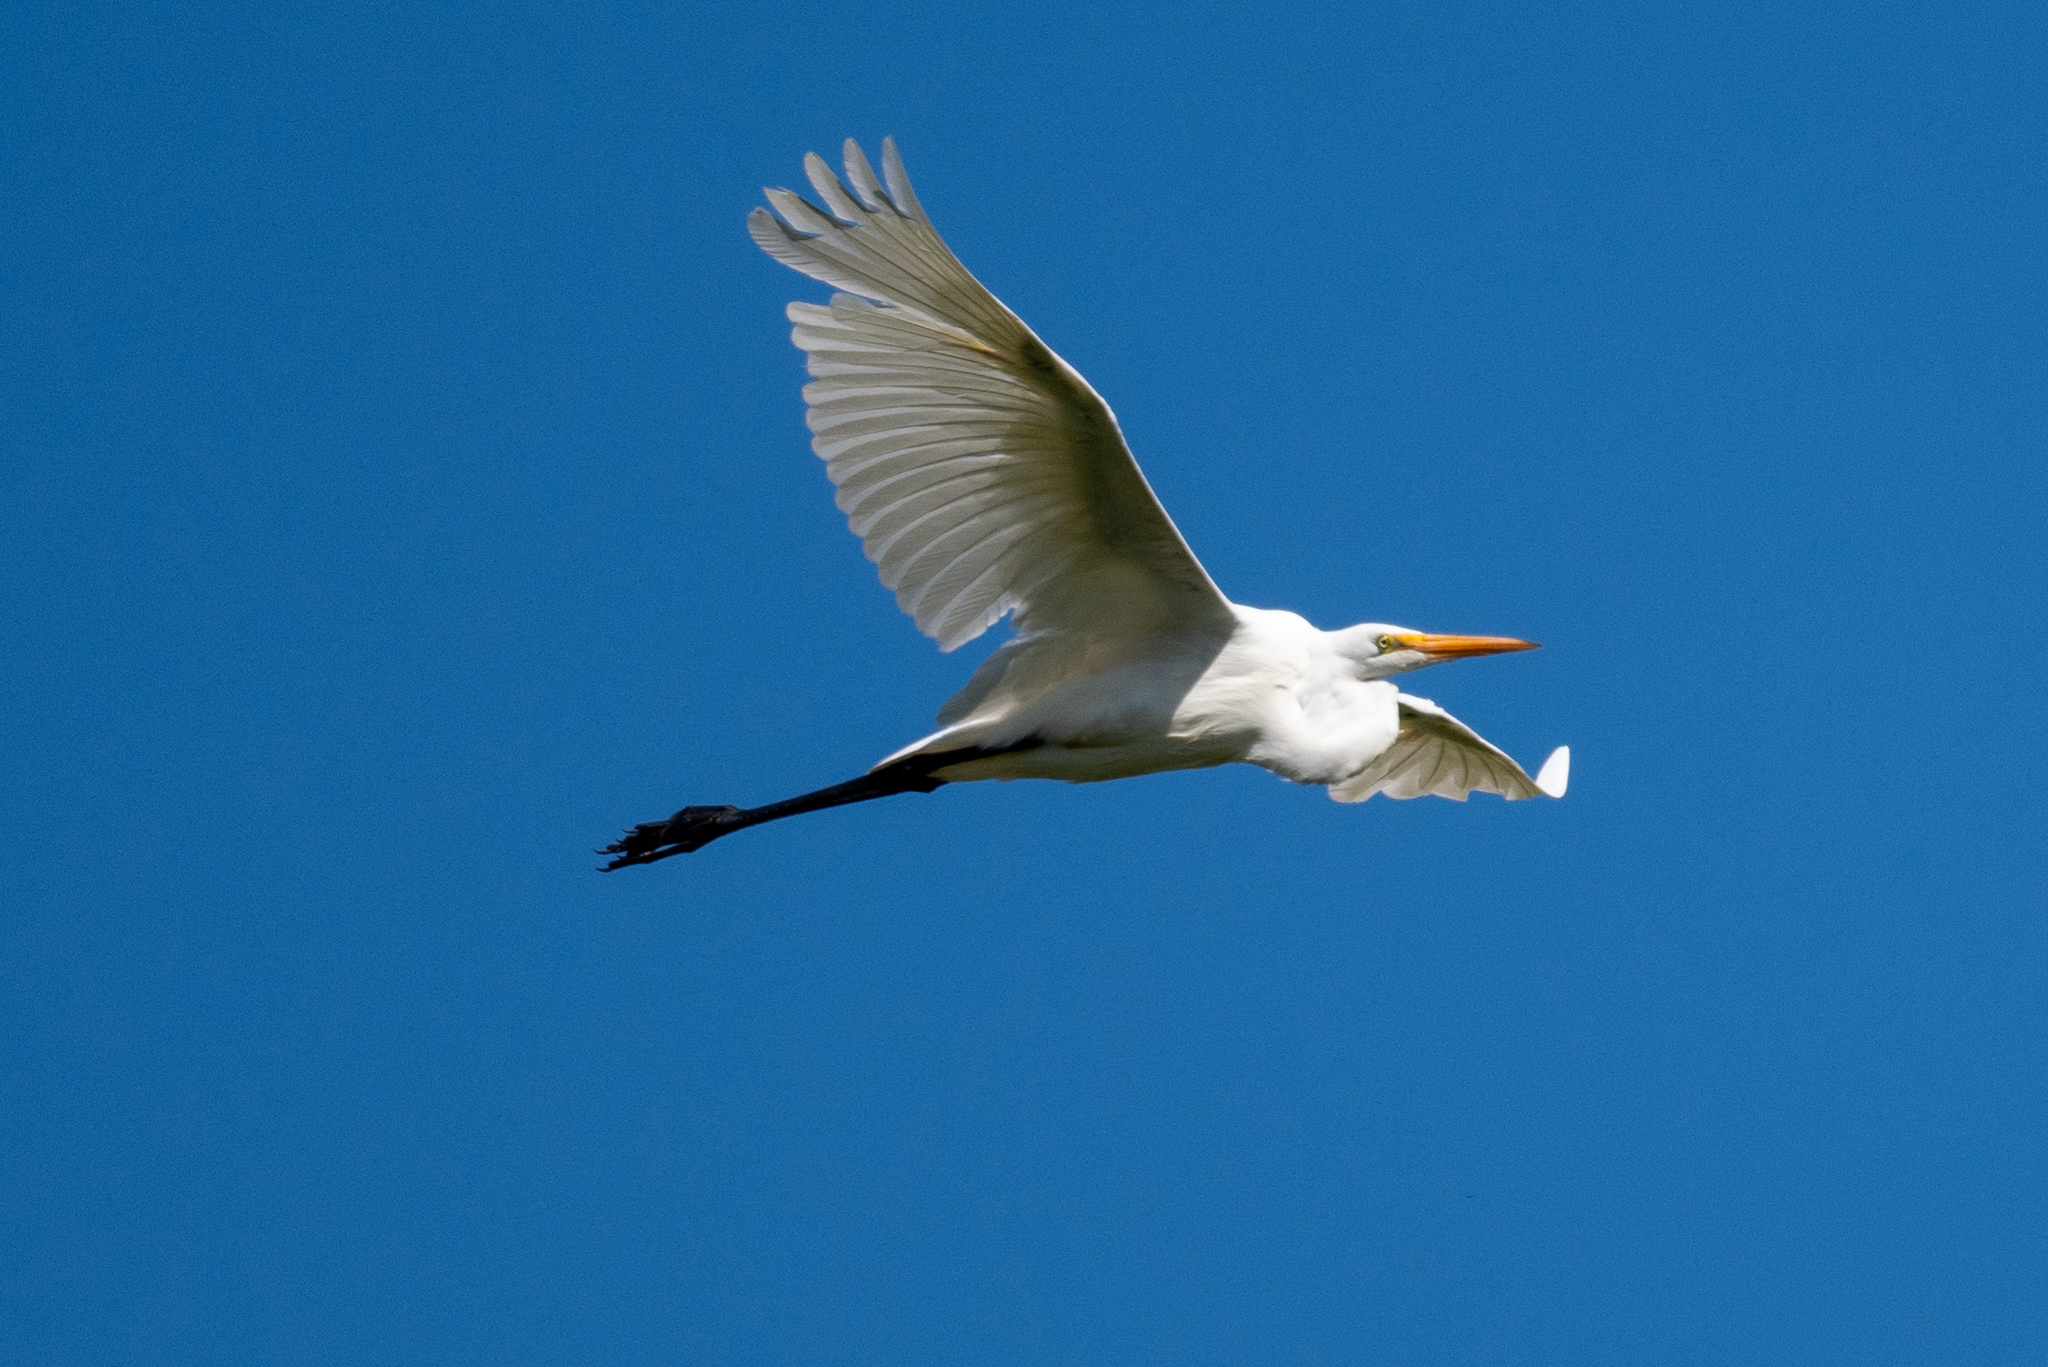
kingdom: Animalia
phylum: Chordata
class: Aves
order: Pelecaniformes
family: Ardeidae
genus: Ardea
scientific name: Ardea alba
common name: Great egret
